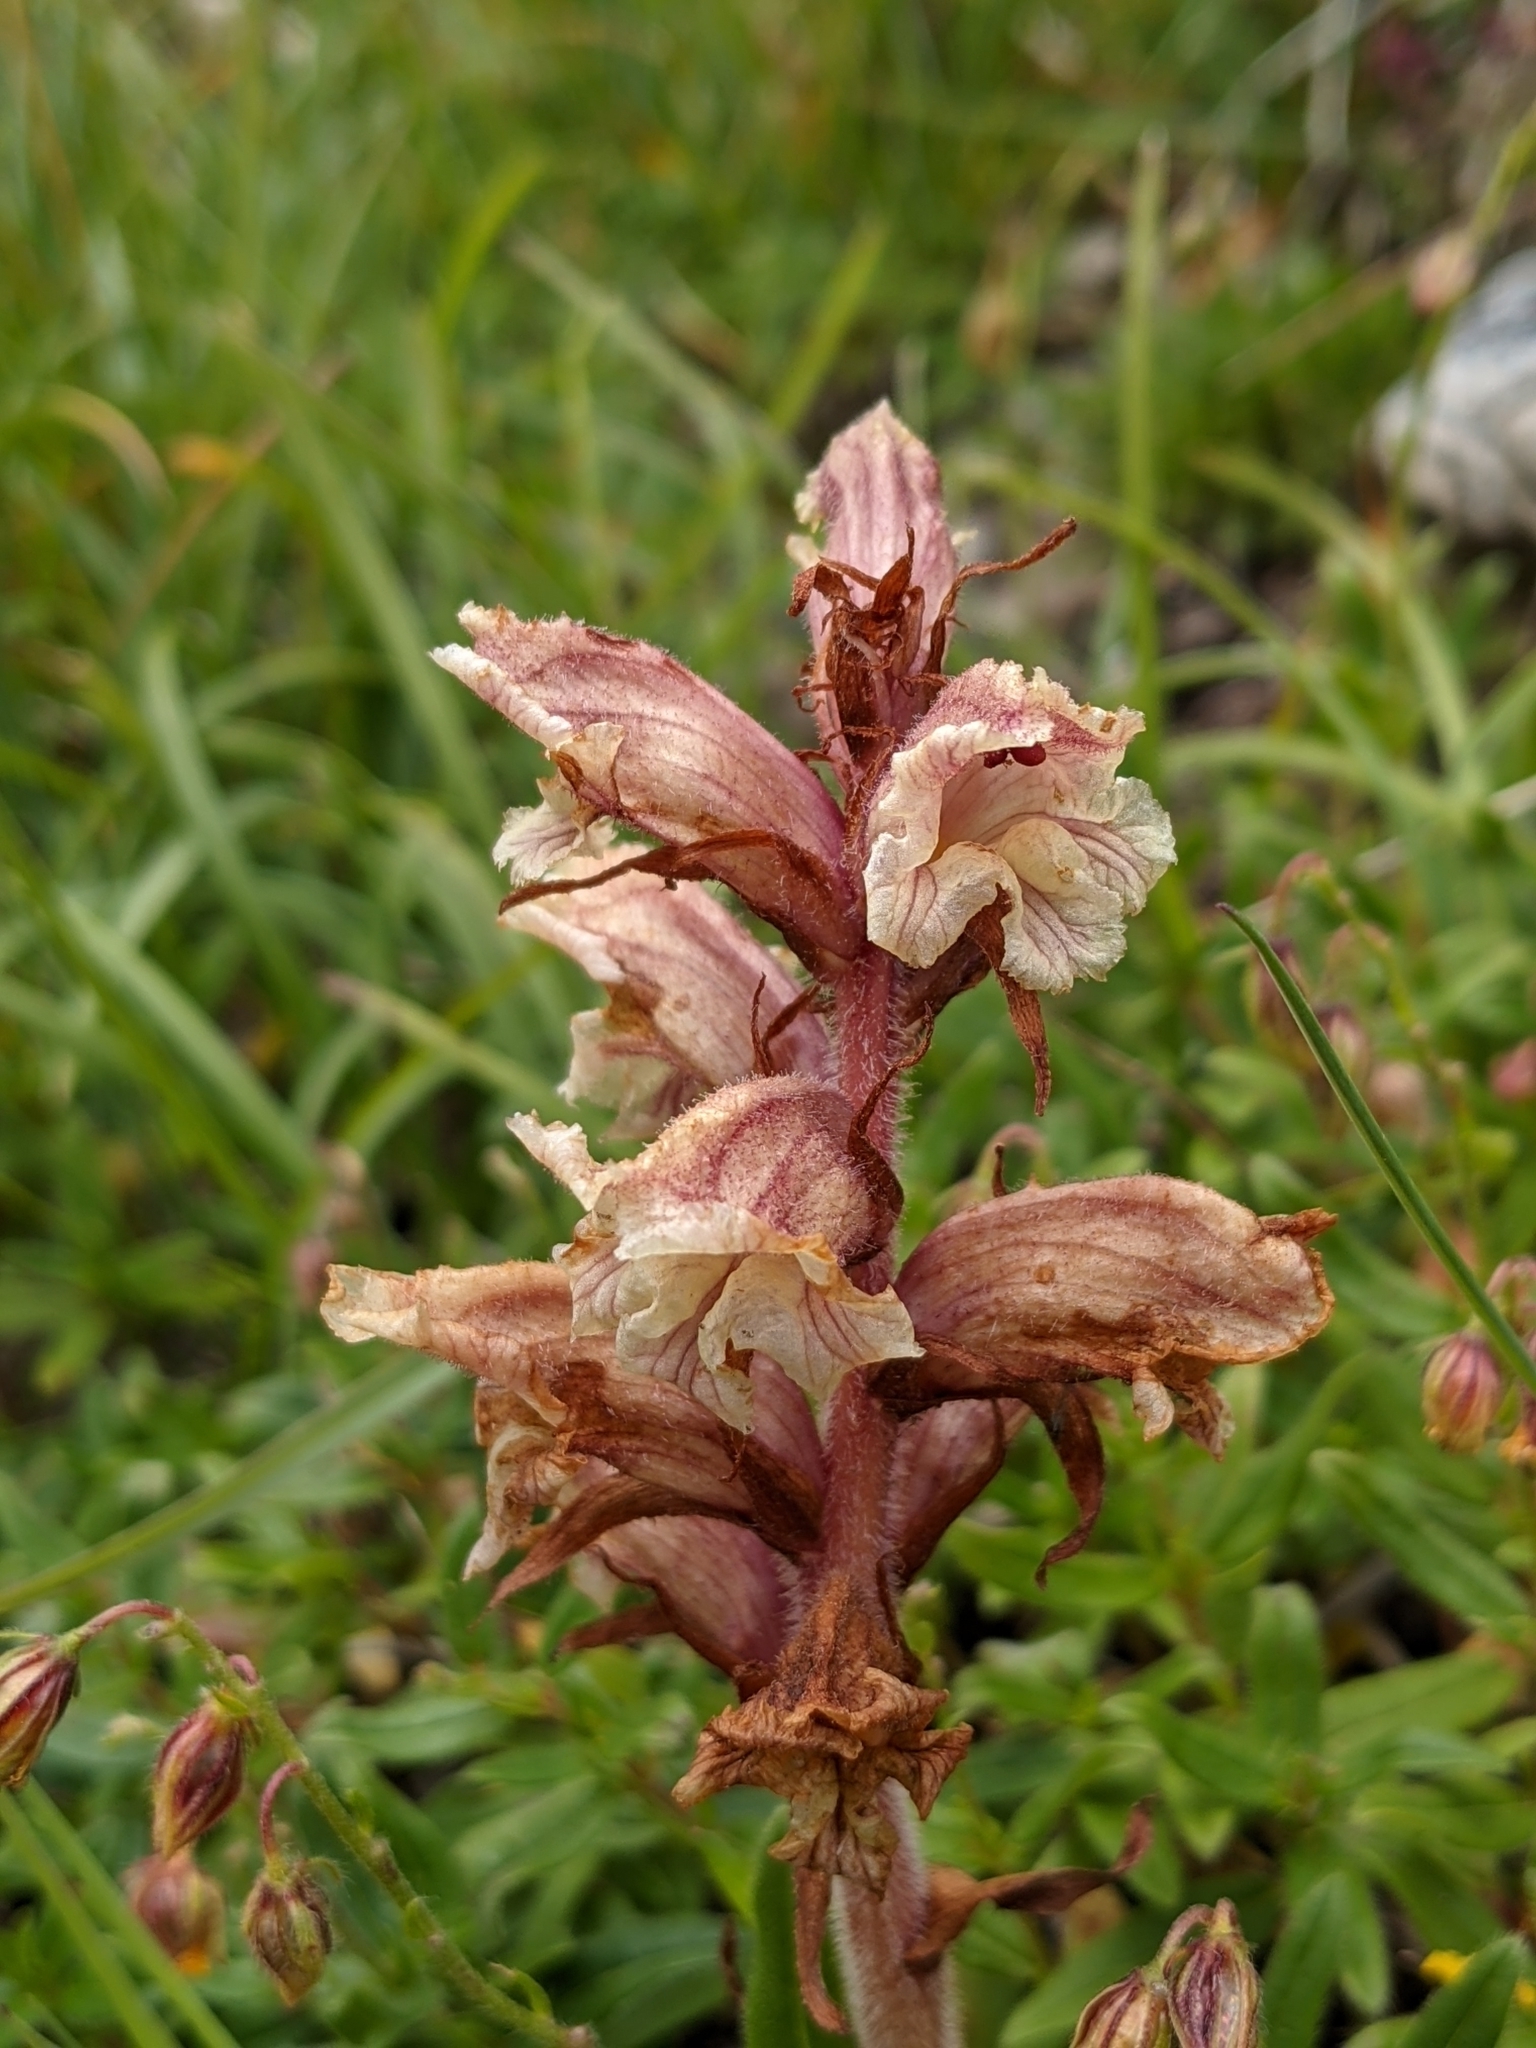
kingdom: Plantae
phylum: Tracheophyta
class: Magnoliopsida
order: Lamiales
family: Orobanchaceae
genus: Orobanche
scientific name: Orobanche alba
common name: Thyme broomrape
